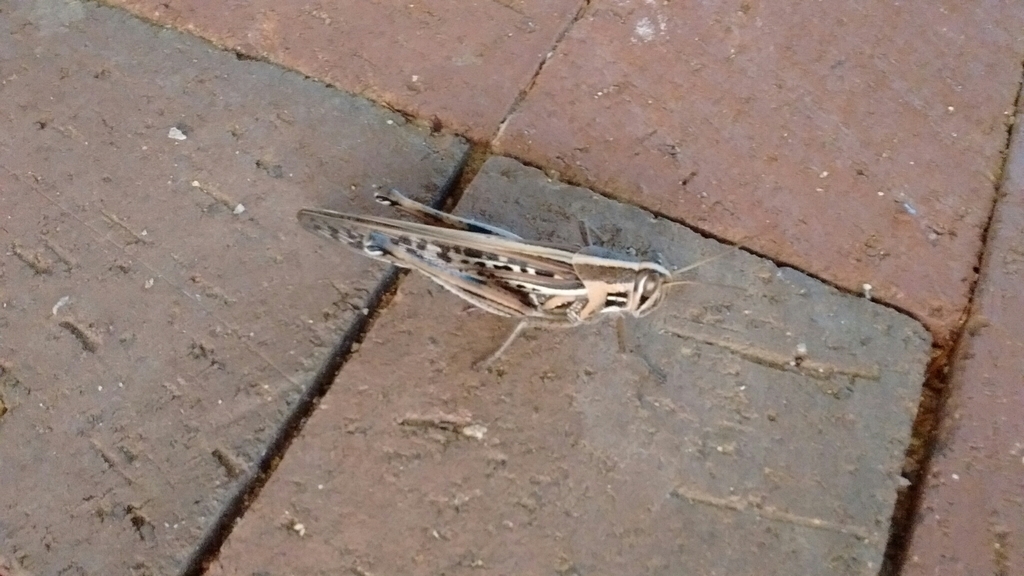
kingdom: Animalia
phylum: Arthropoda
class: Insecta
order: Orthoptera
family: Acrididae
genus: Schistocerca
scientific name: Schistocerca americana
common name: American bird locust
